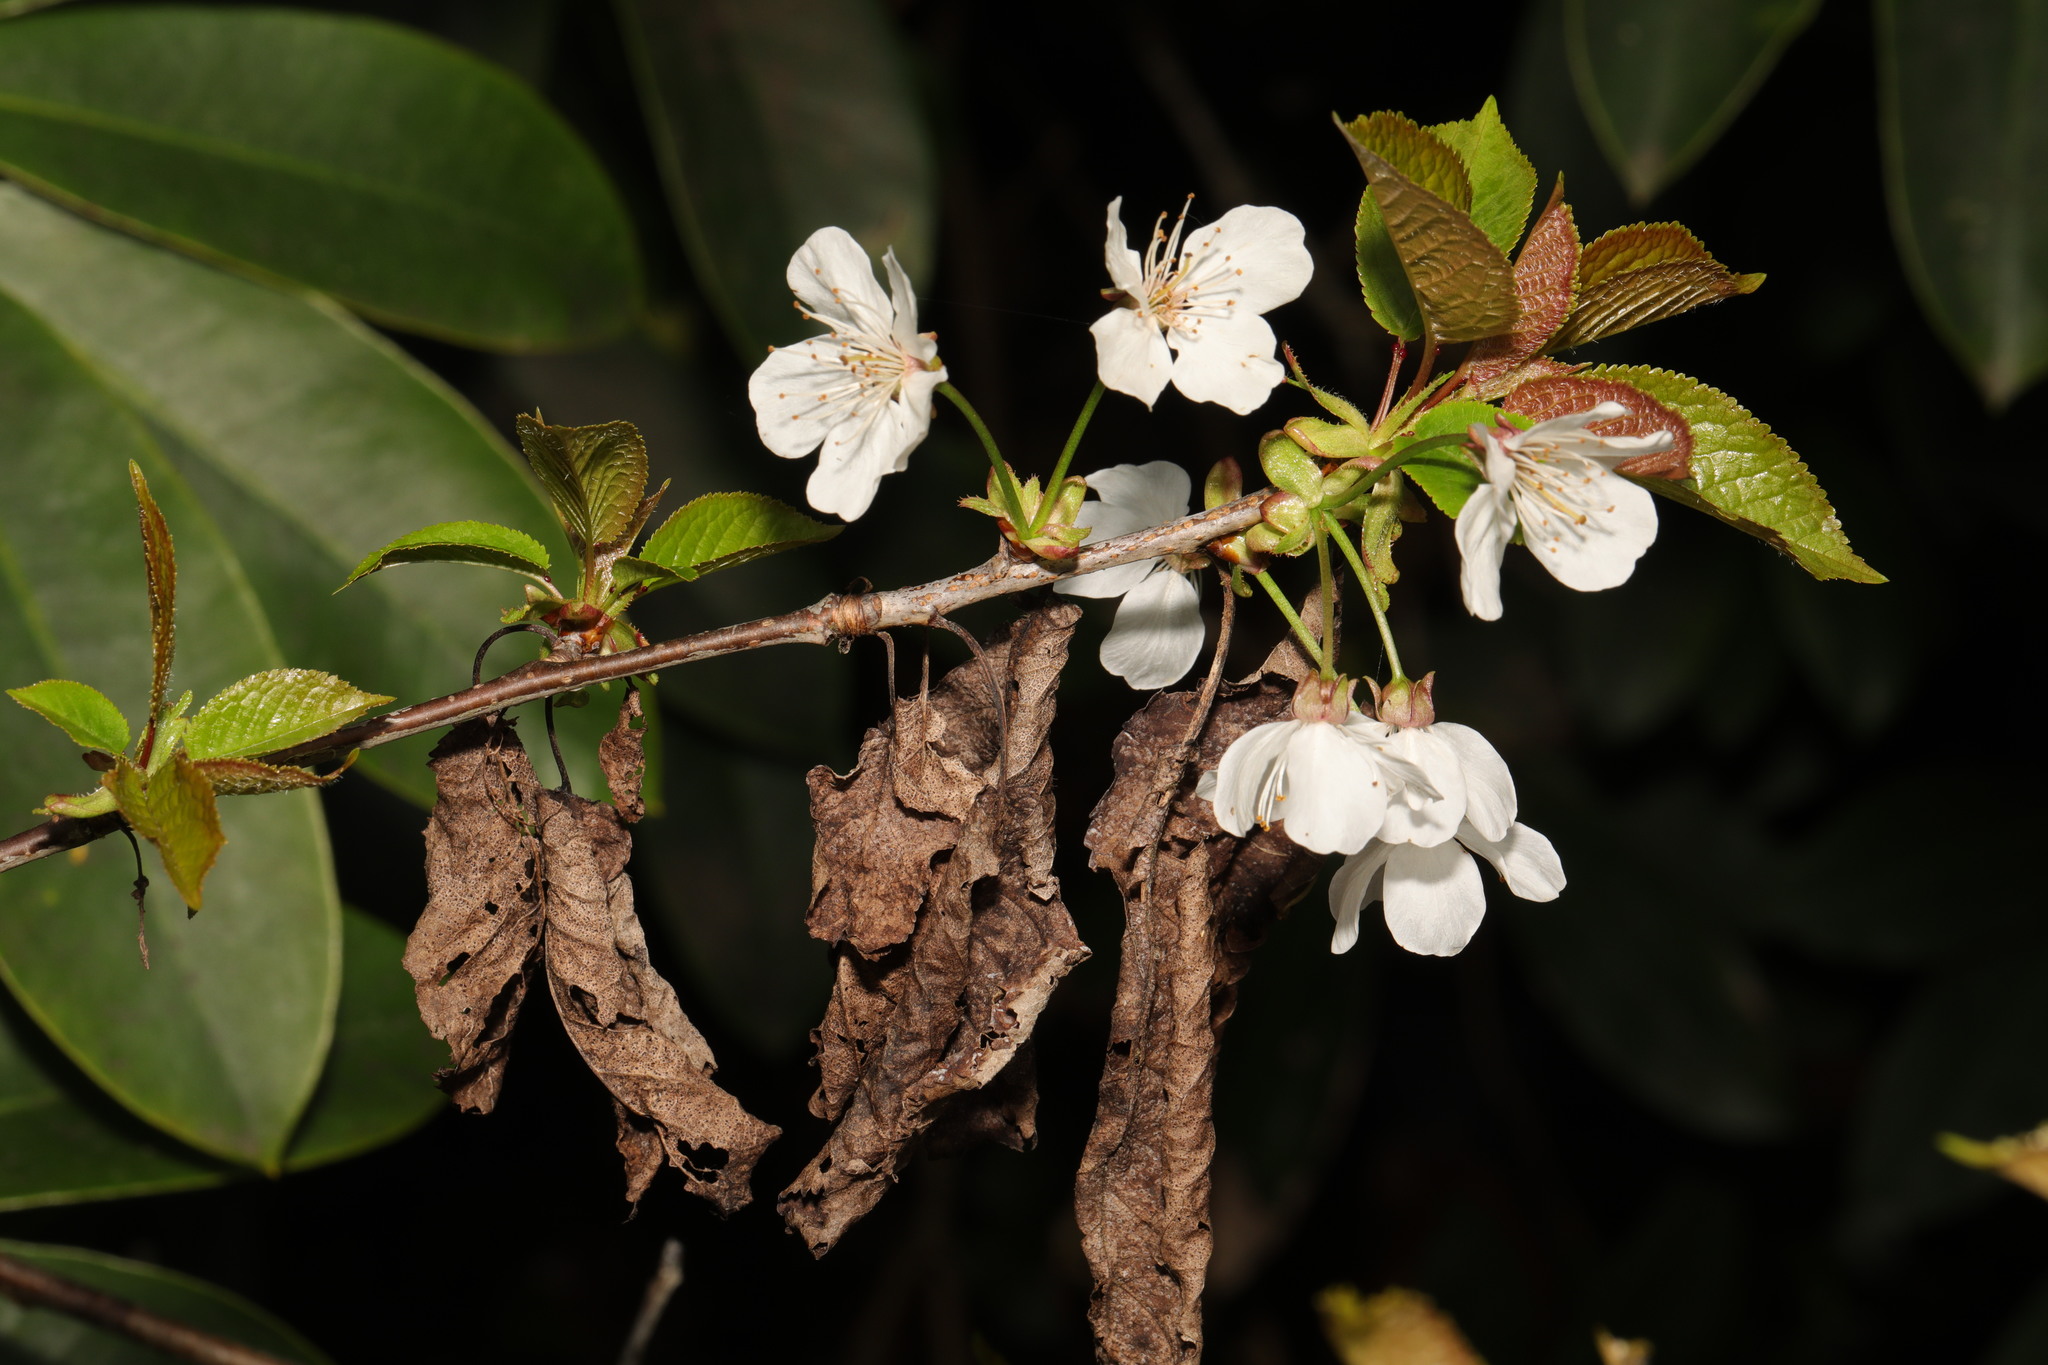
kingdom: Plantae
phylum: Tracheophyta
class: Magnoliopsida
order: Rosales
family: Rosaceae
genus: Prunus
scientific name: Prunus avium
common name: Sweet cherry
